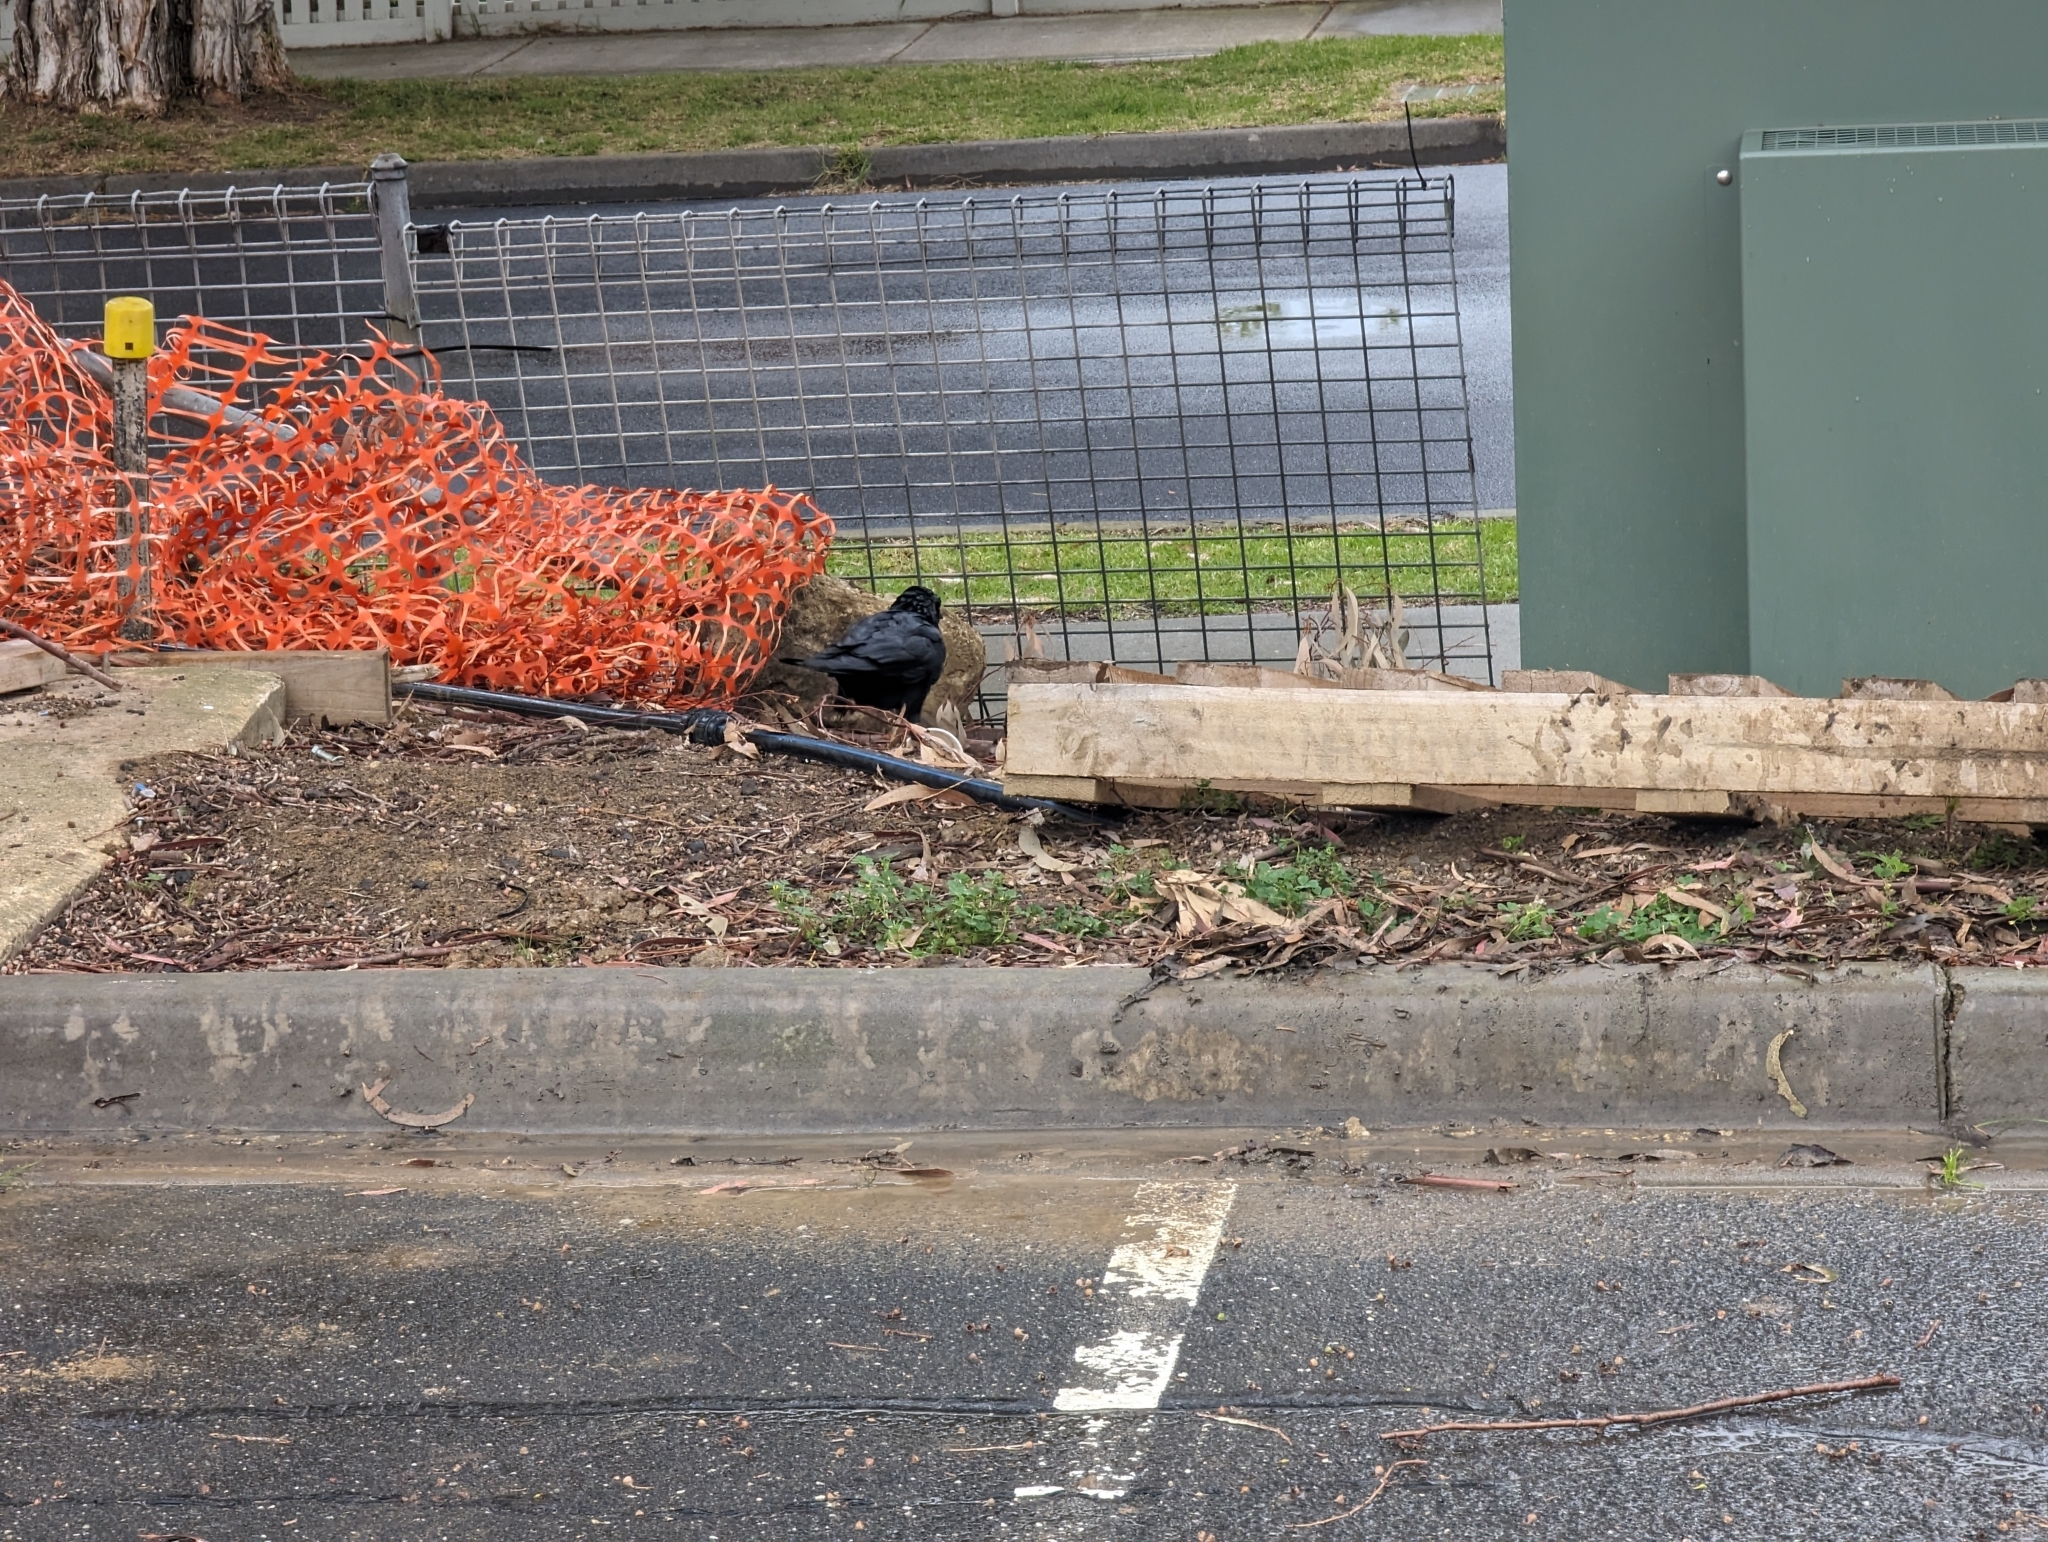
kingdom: Animalia
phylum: Chordata
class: Aves
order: Passeriformes
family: Corvidae
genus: Corvus
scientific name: Corvus mellori
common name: Little raven
